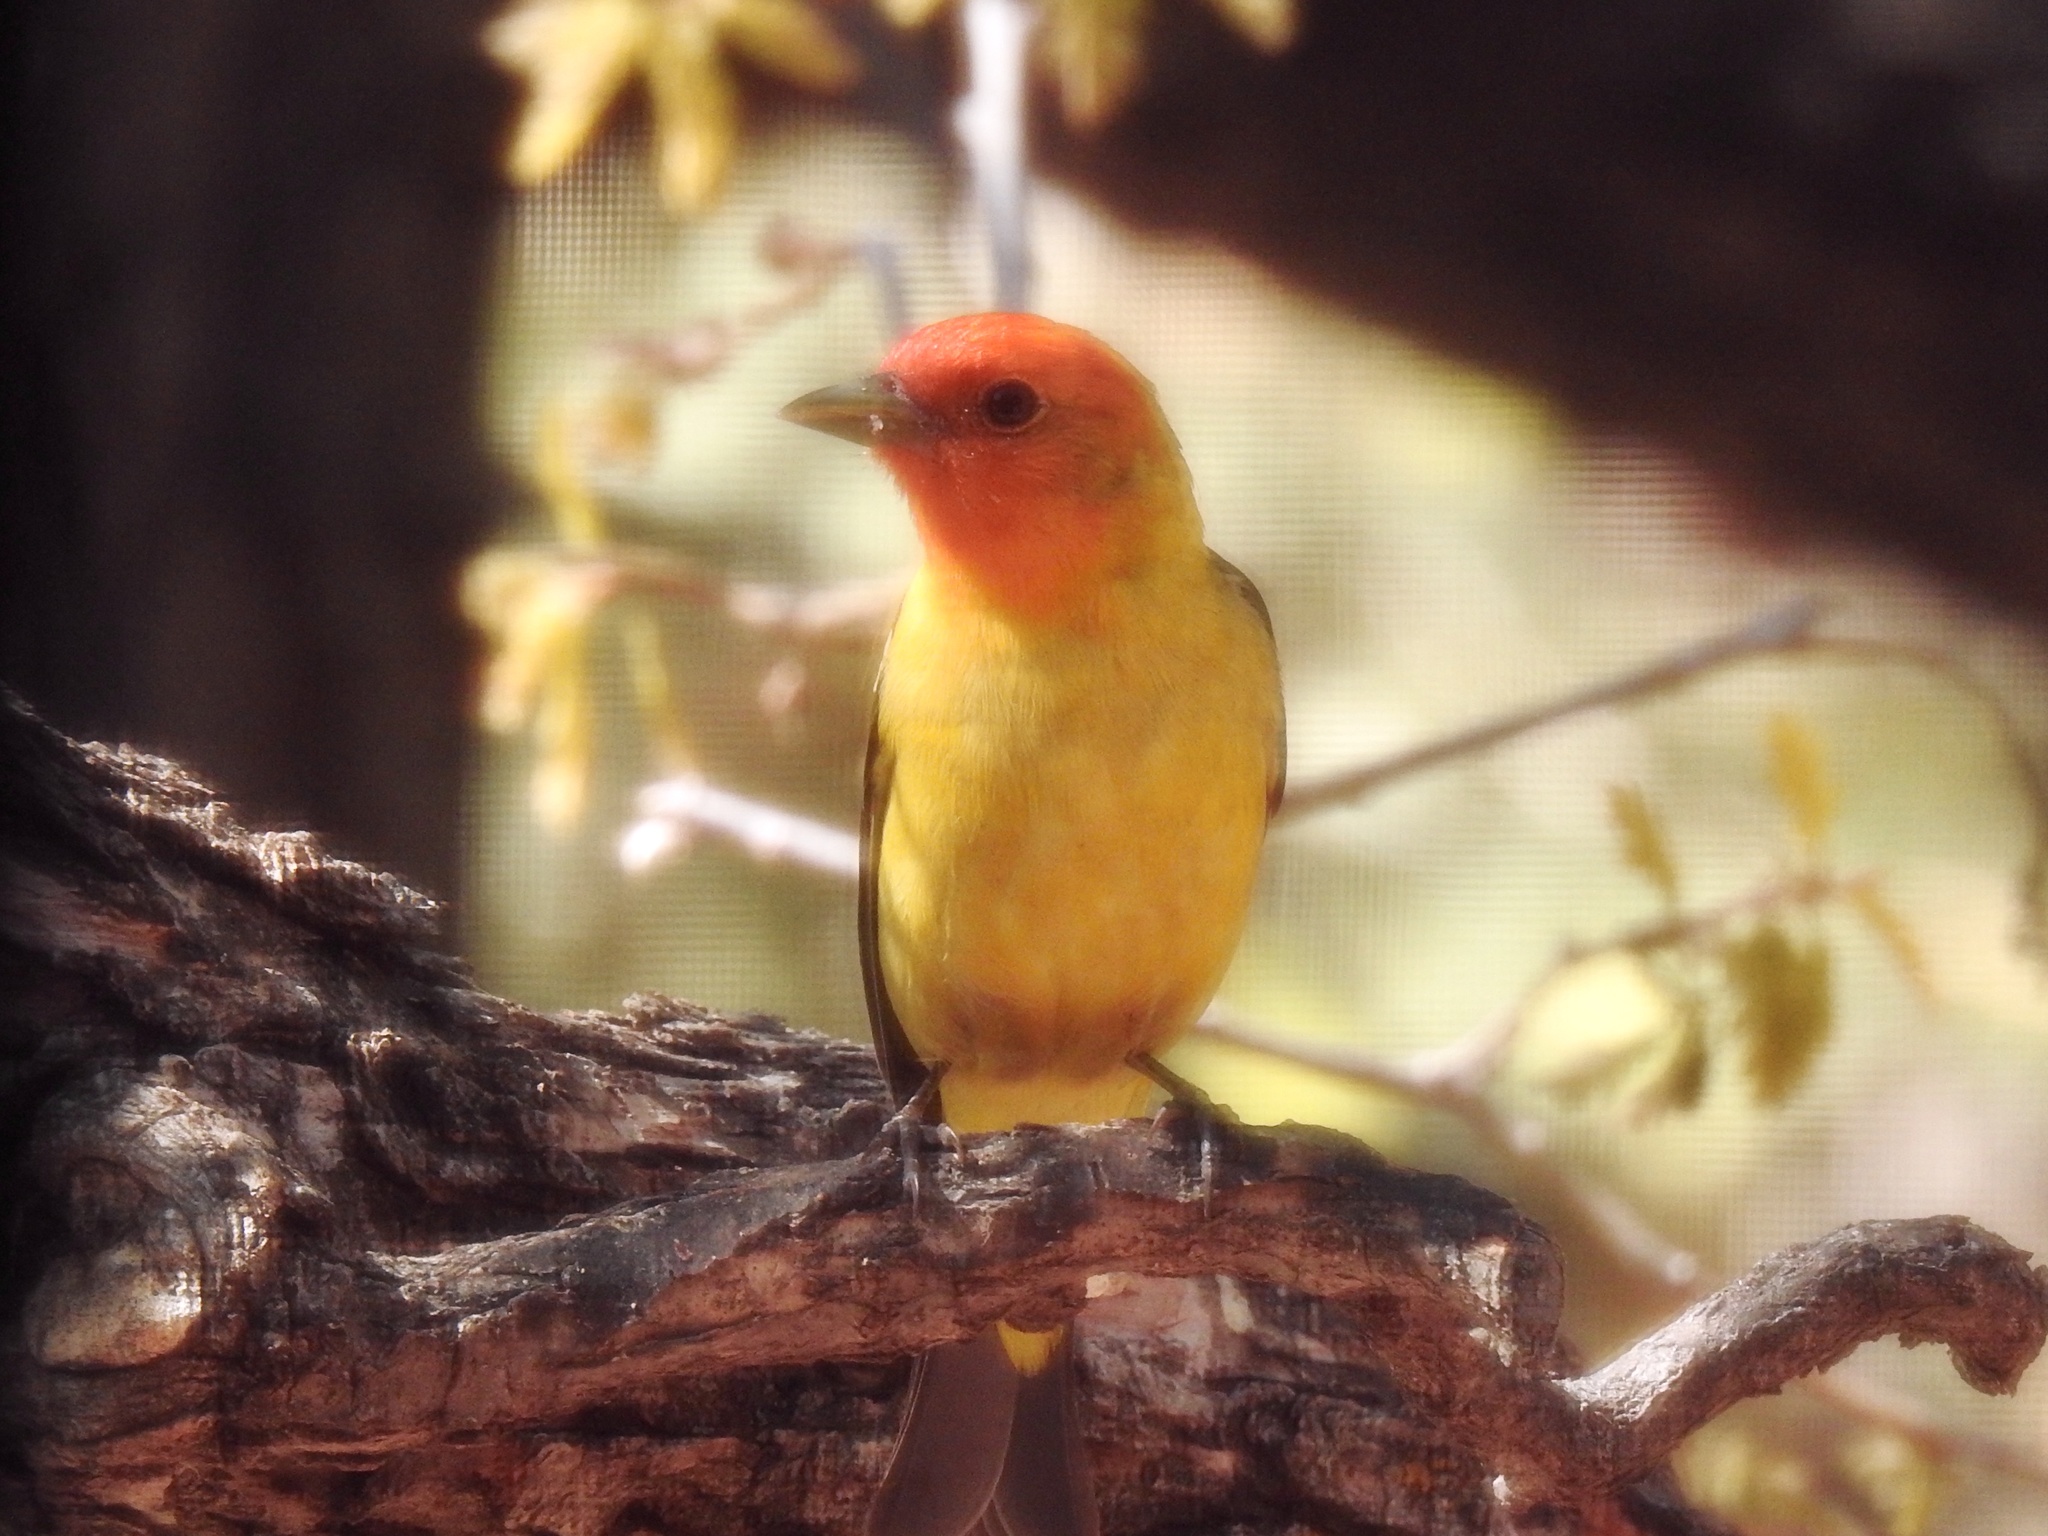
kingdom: Animalia
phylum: Chordata
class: Aves
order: Passeriformes
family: Cardinalidae
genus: Piranga
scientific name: Piranga ludoviciana
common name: Western tanager
